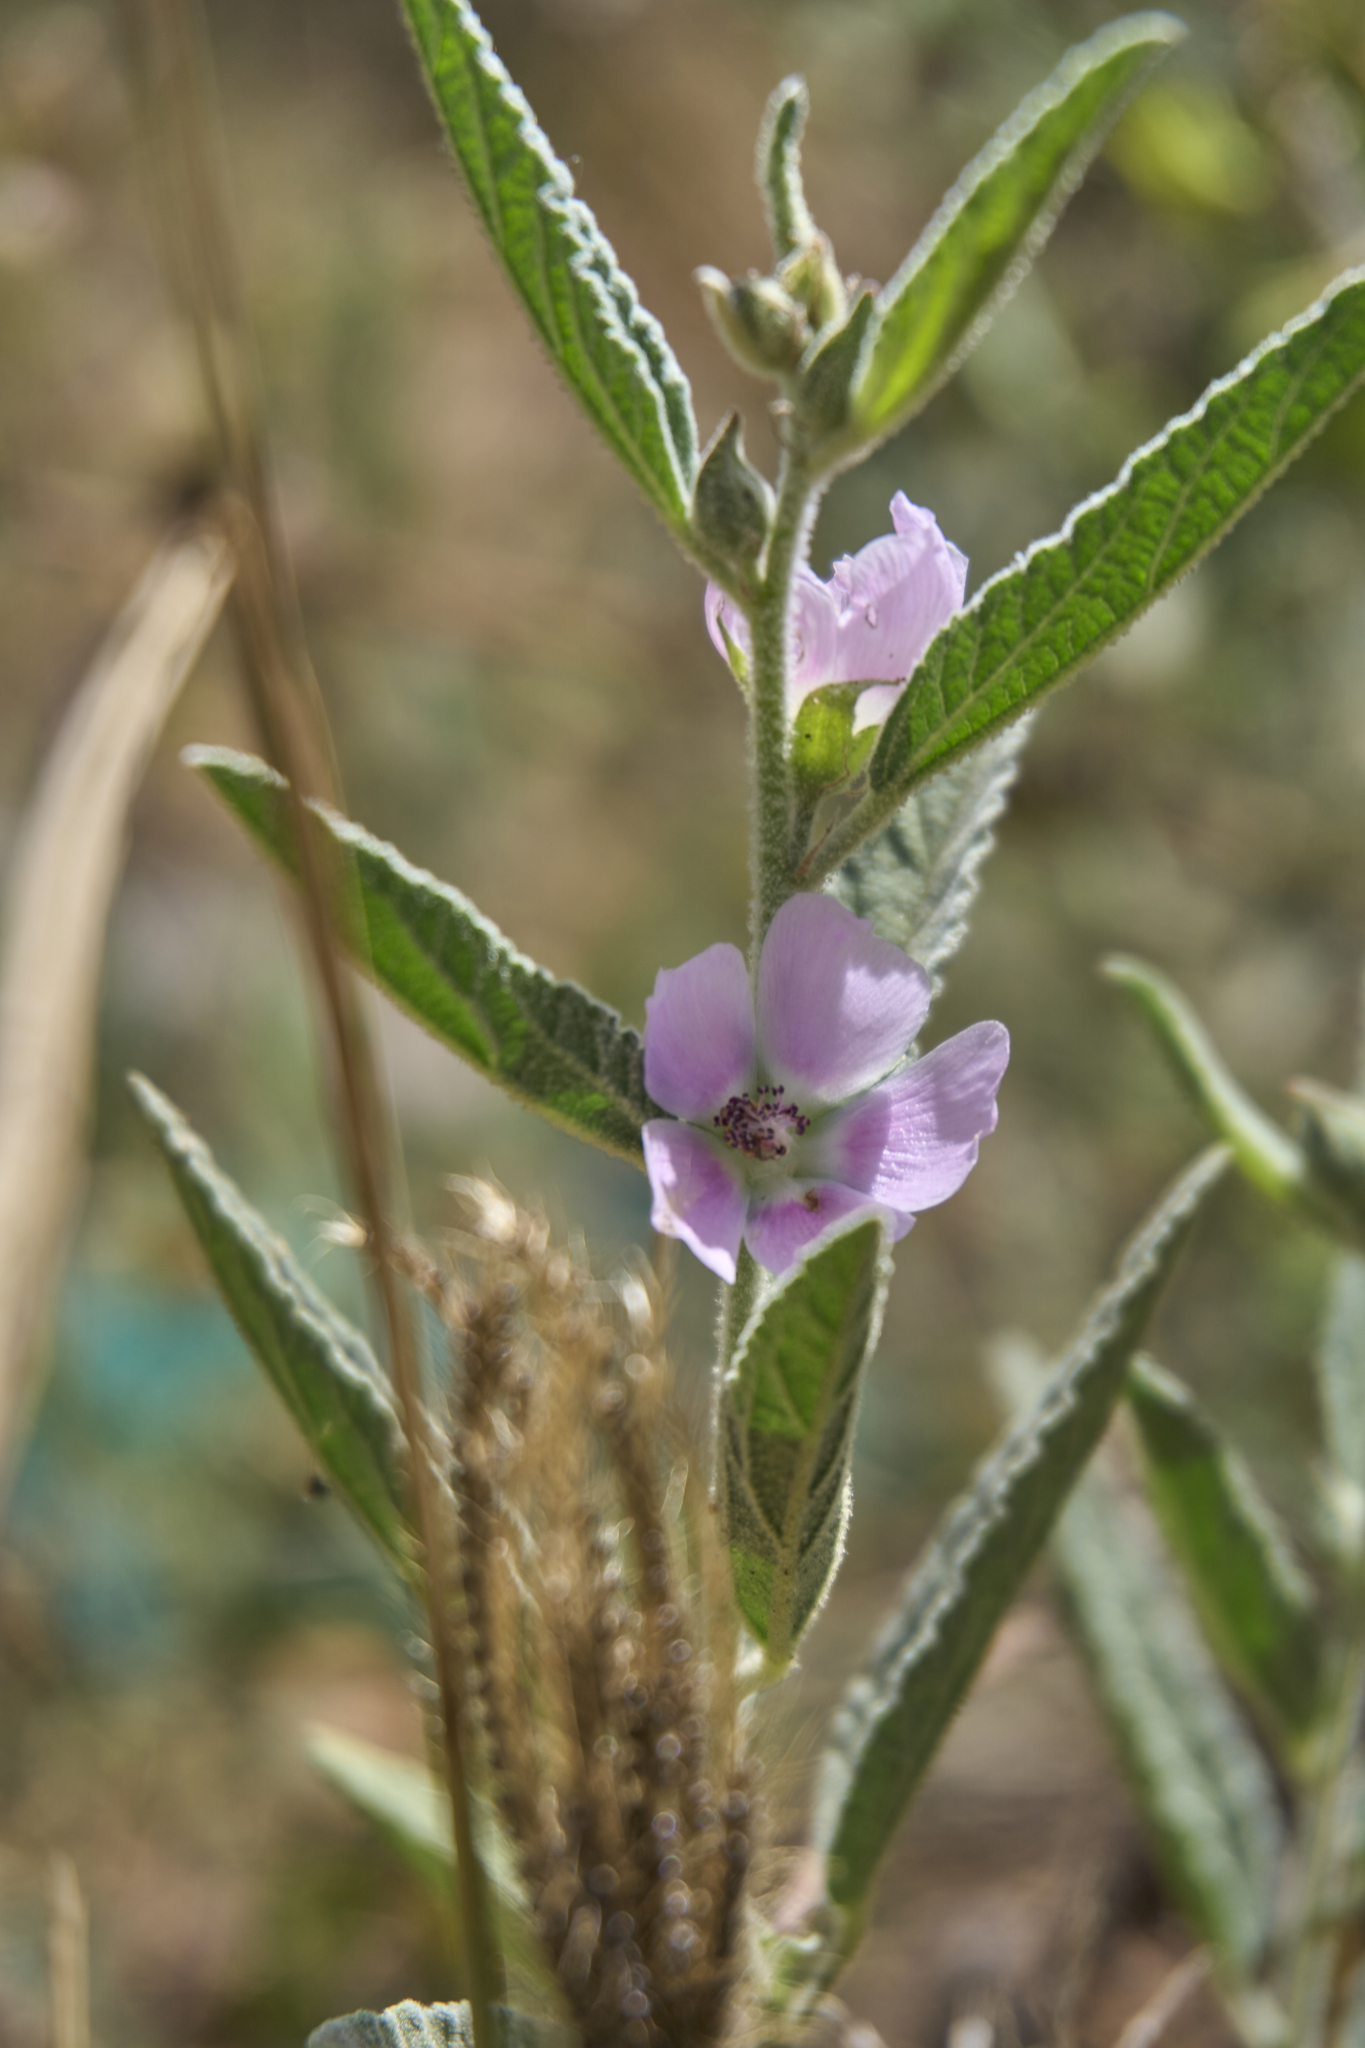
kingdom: Plantae
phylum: Tracheophyta
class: Magnoliopsida
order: Malvales
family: Malvaceae
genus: Sphaeralcea
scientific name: Sphaeralcea angustifolia
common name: Copper globe-mallow
